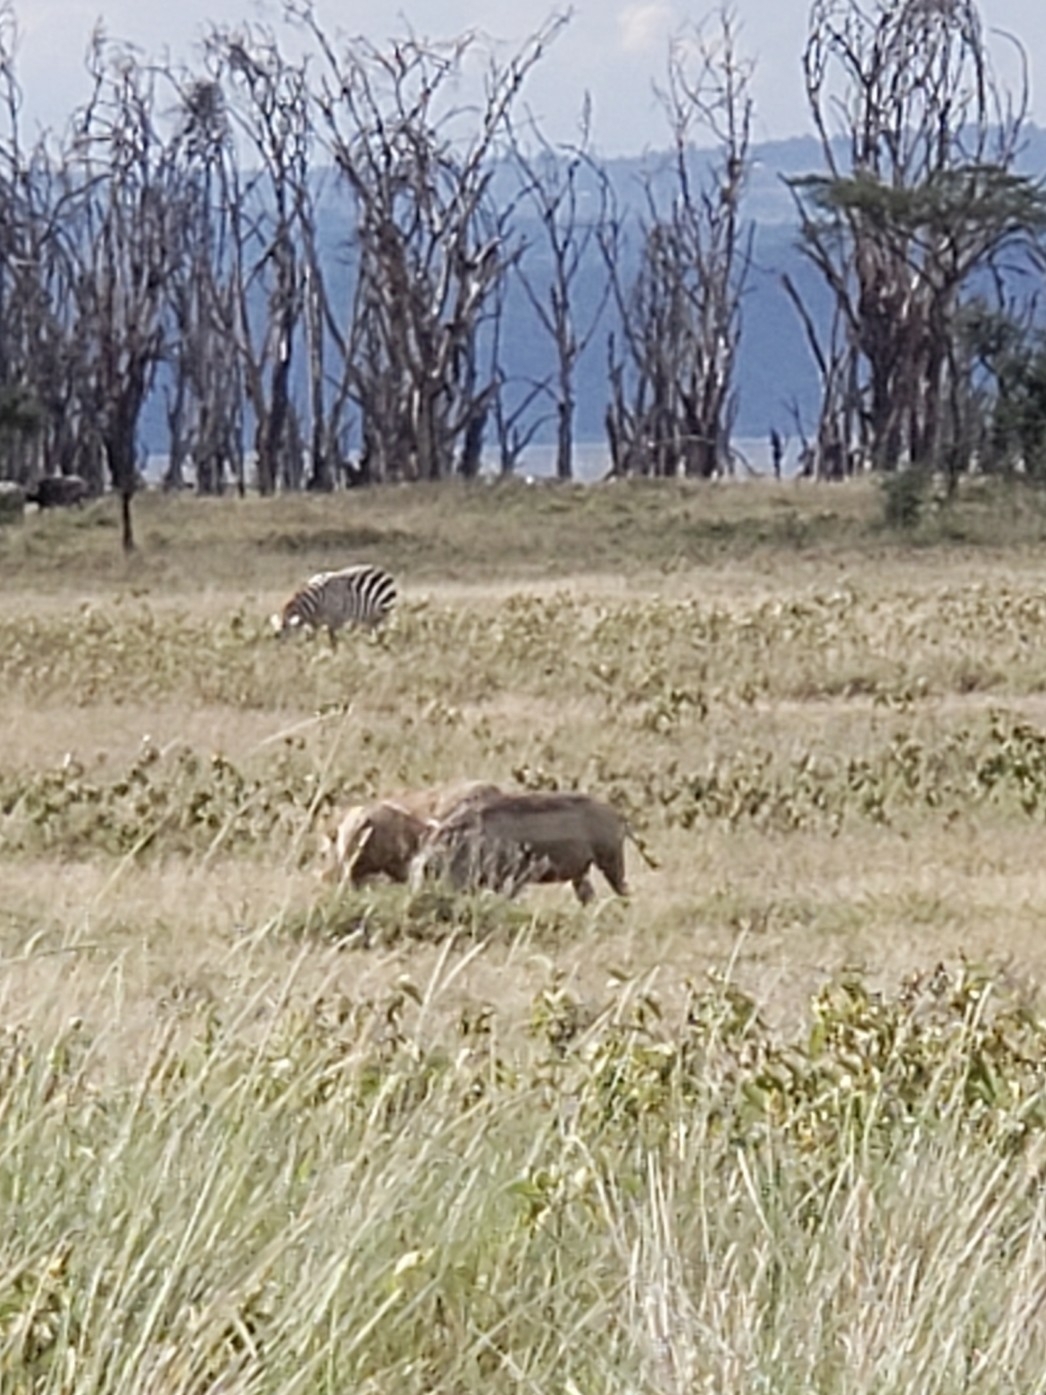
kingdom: Animalia
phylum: Chordata
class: Mammalia
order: Artiodactyla
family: Suidae
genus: Phacochoerus
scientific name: Phacochoerus africanus
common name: Common warthog
